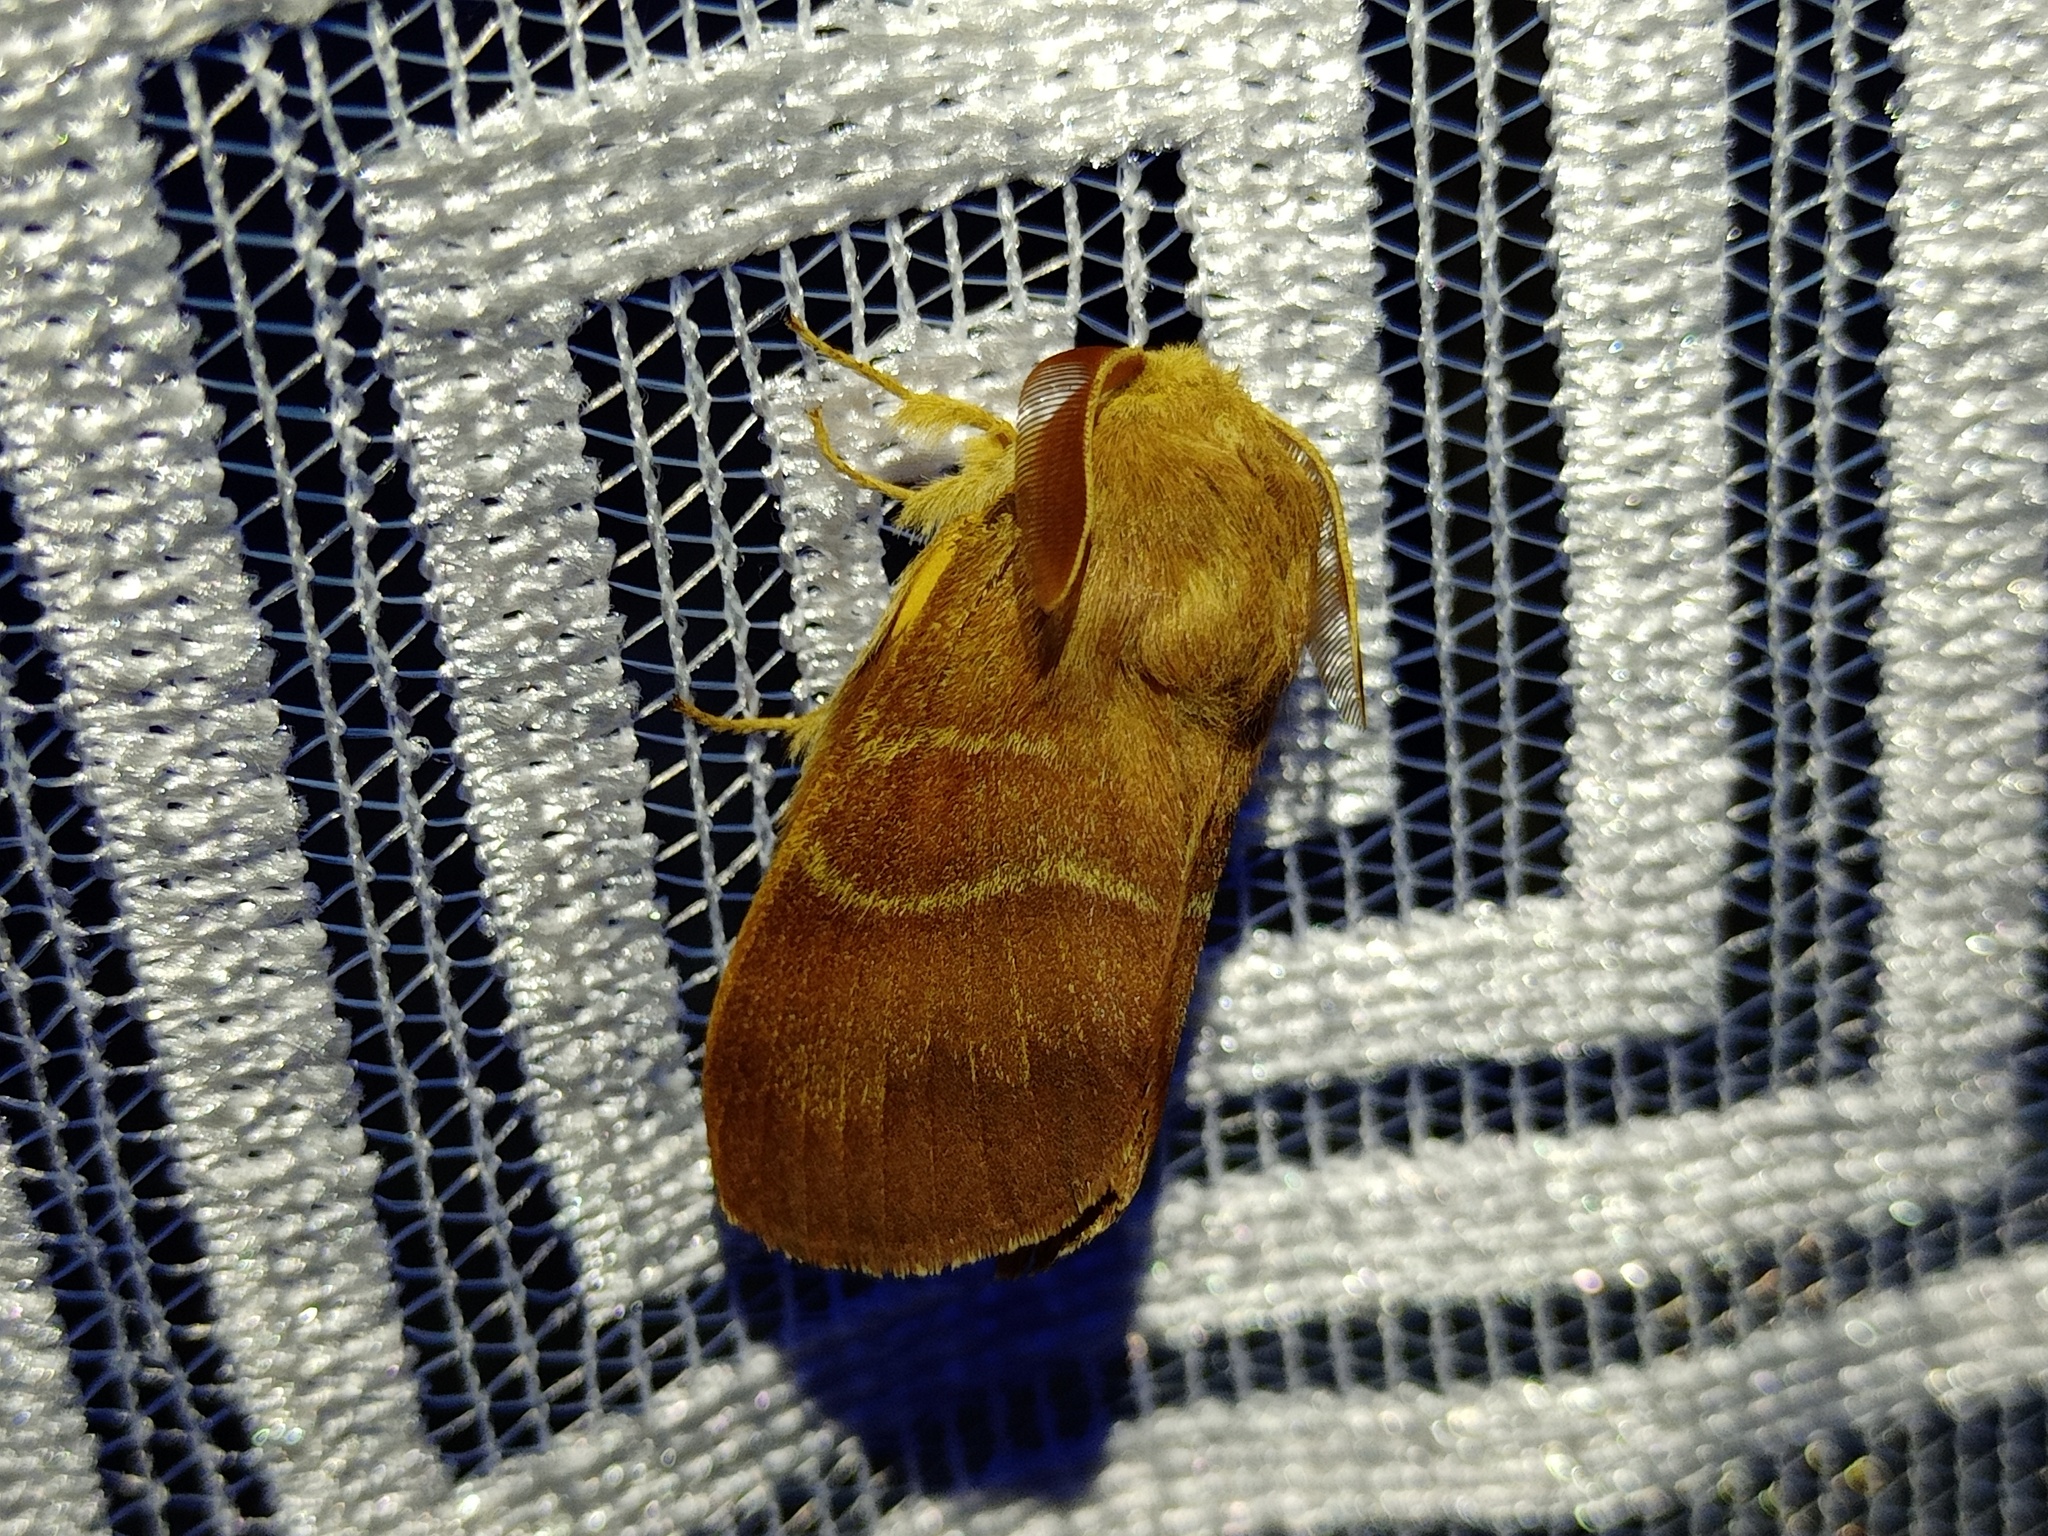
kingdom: Animalia
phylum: Arthropoda
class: Insecta
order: Lepidoptera
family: Lasiocampidae
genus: Macrothylacia
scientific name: Macrothylacia rubi
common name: Fox moth
